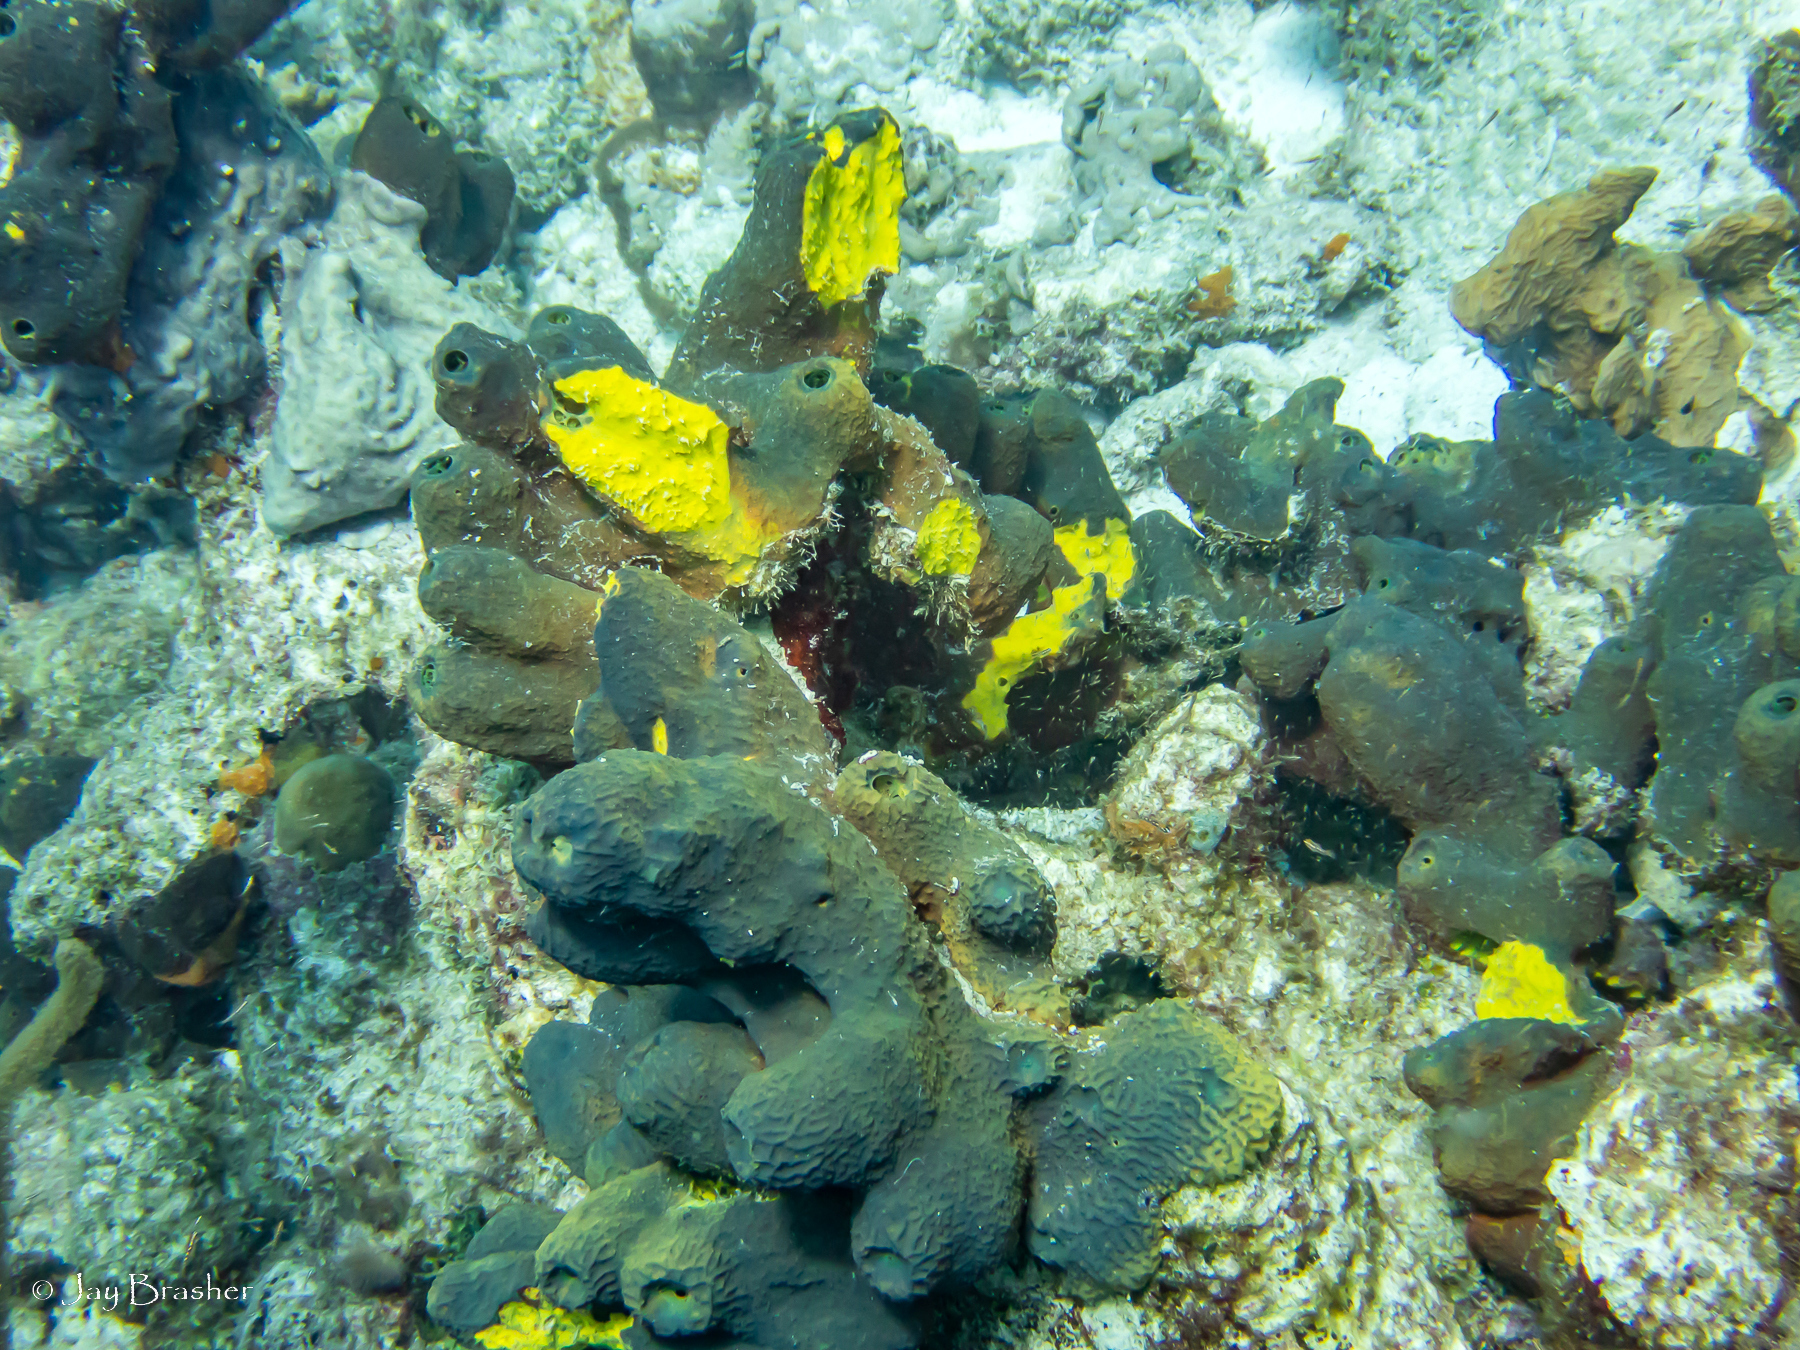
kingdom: Animalia
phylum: Porifera
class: Demospongiae
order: Verongiida
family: Aplysinidae
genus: Verongula
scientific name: Verongula reiswigi
